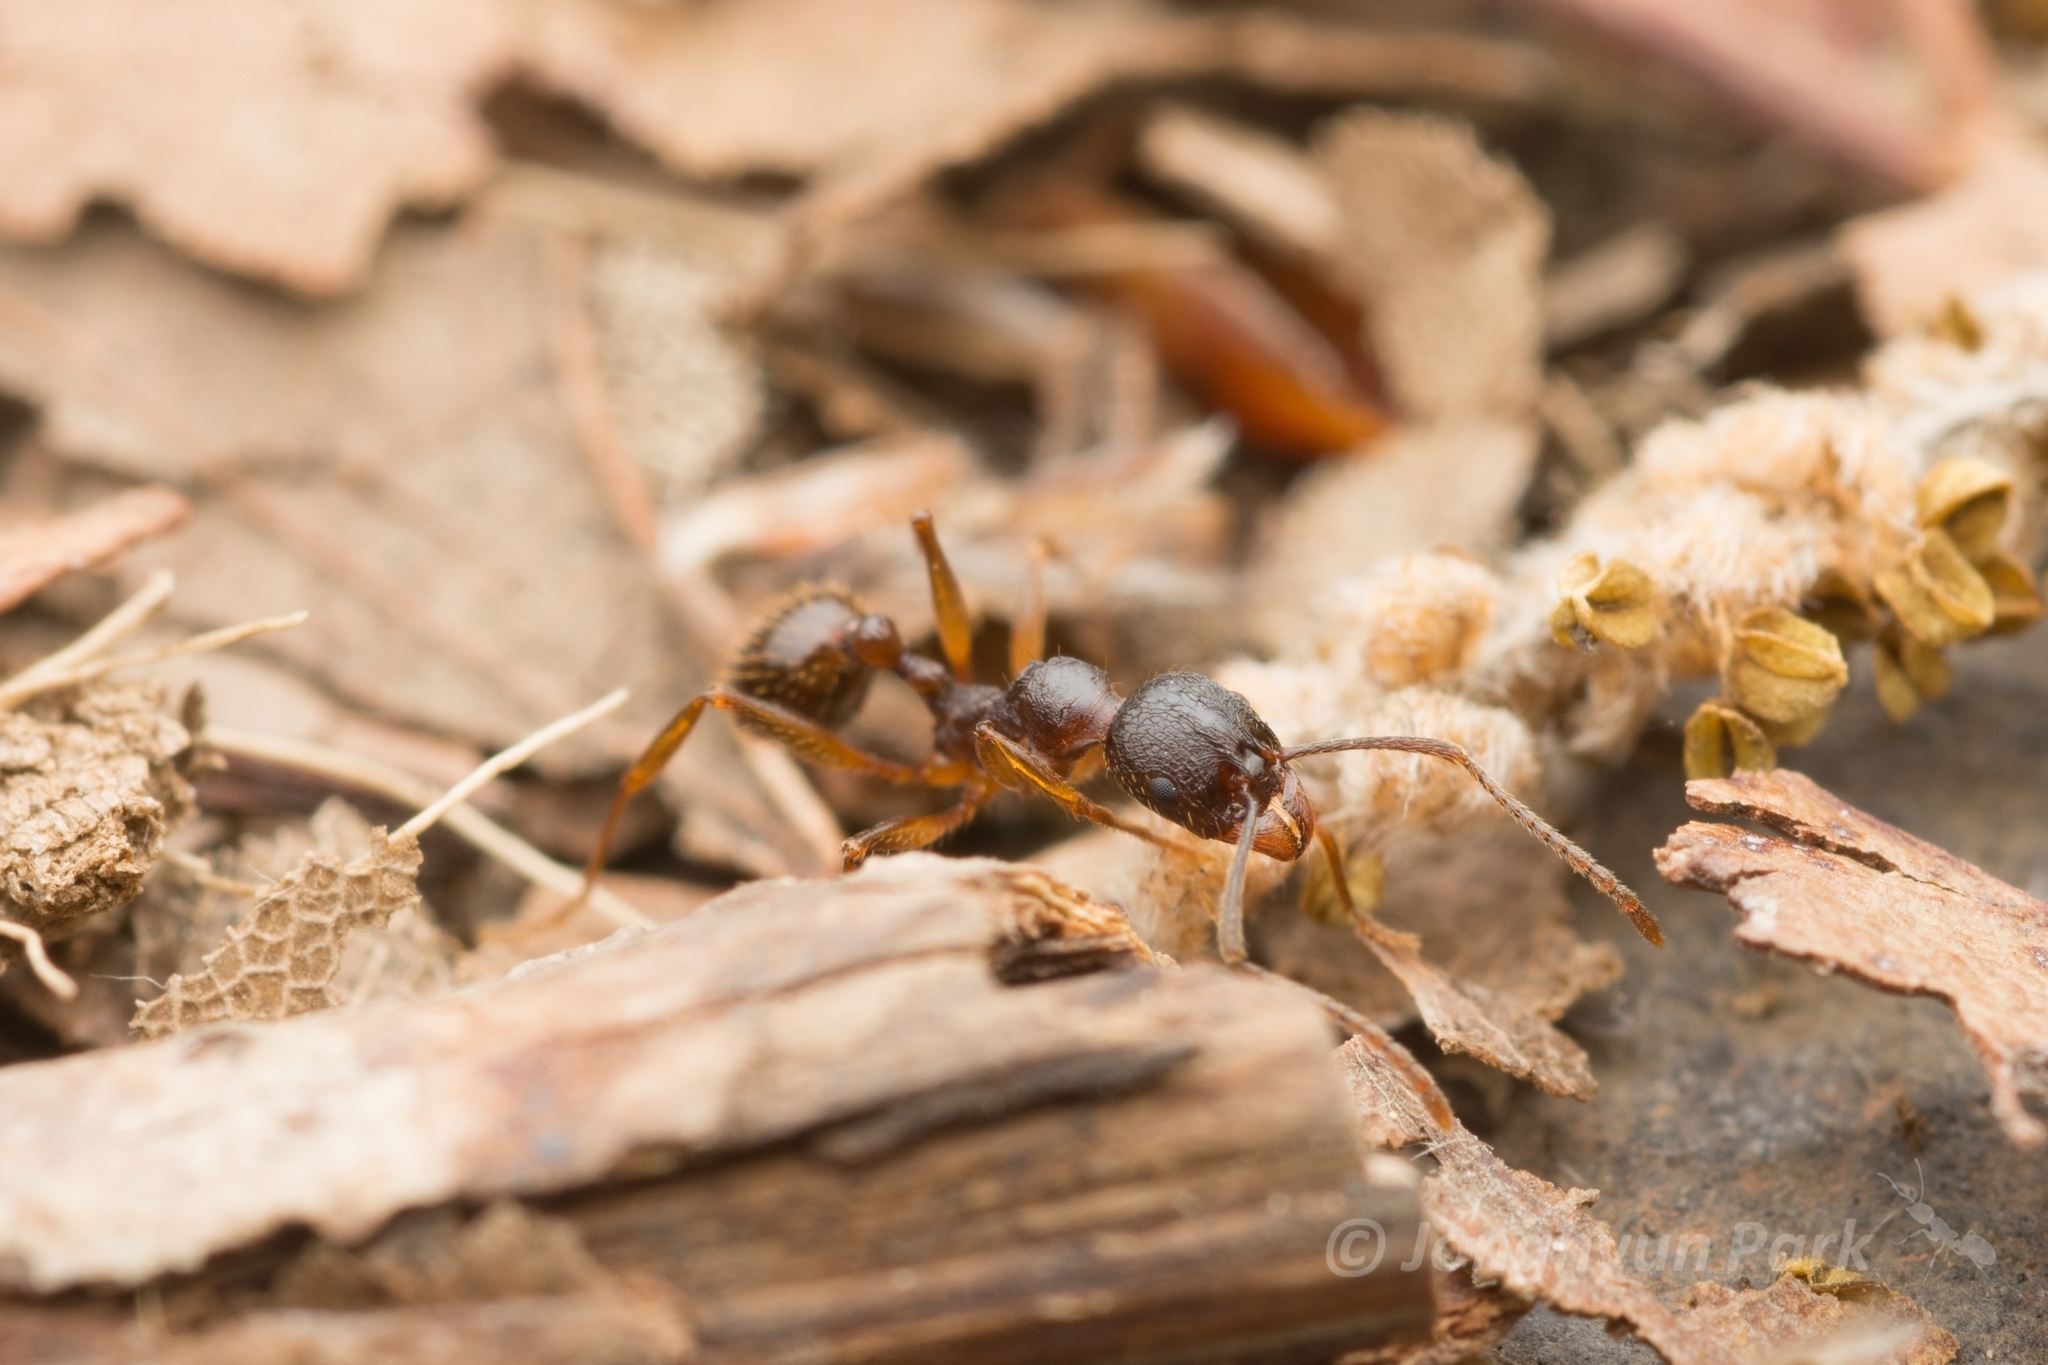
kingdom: Animalia
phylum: Arthropoda
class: Insecta
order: Hymenoptera
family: Formicidae
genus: Aphaenogaster
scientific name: Aphaenogaster japonica
